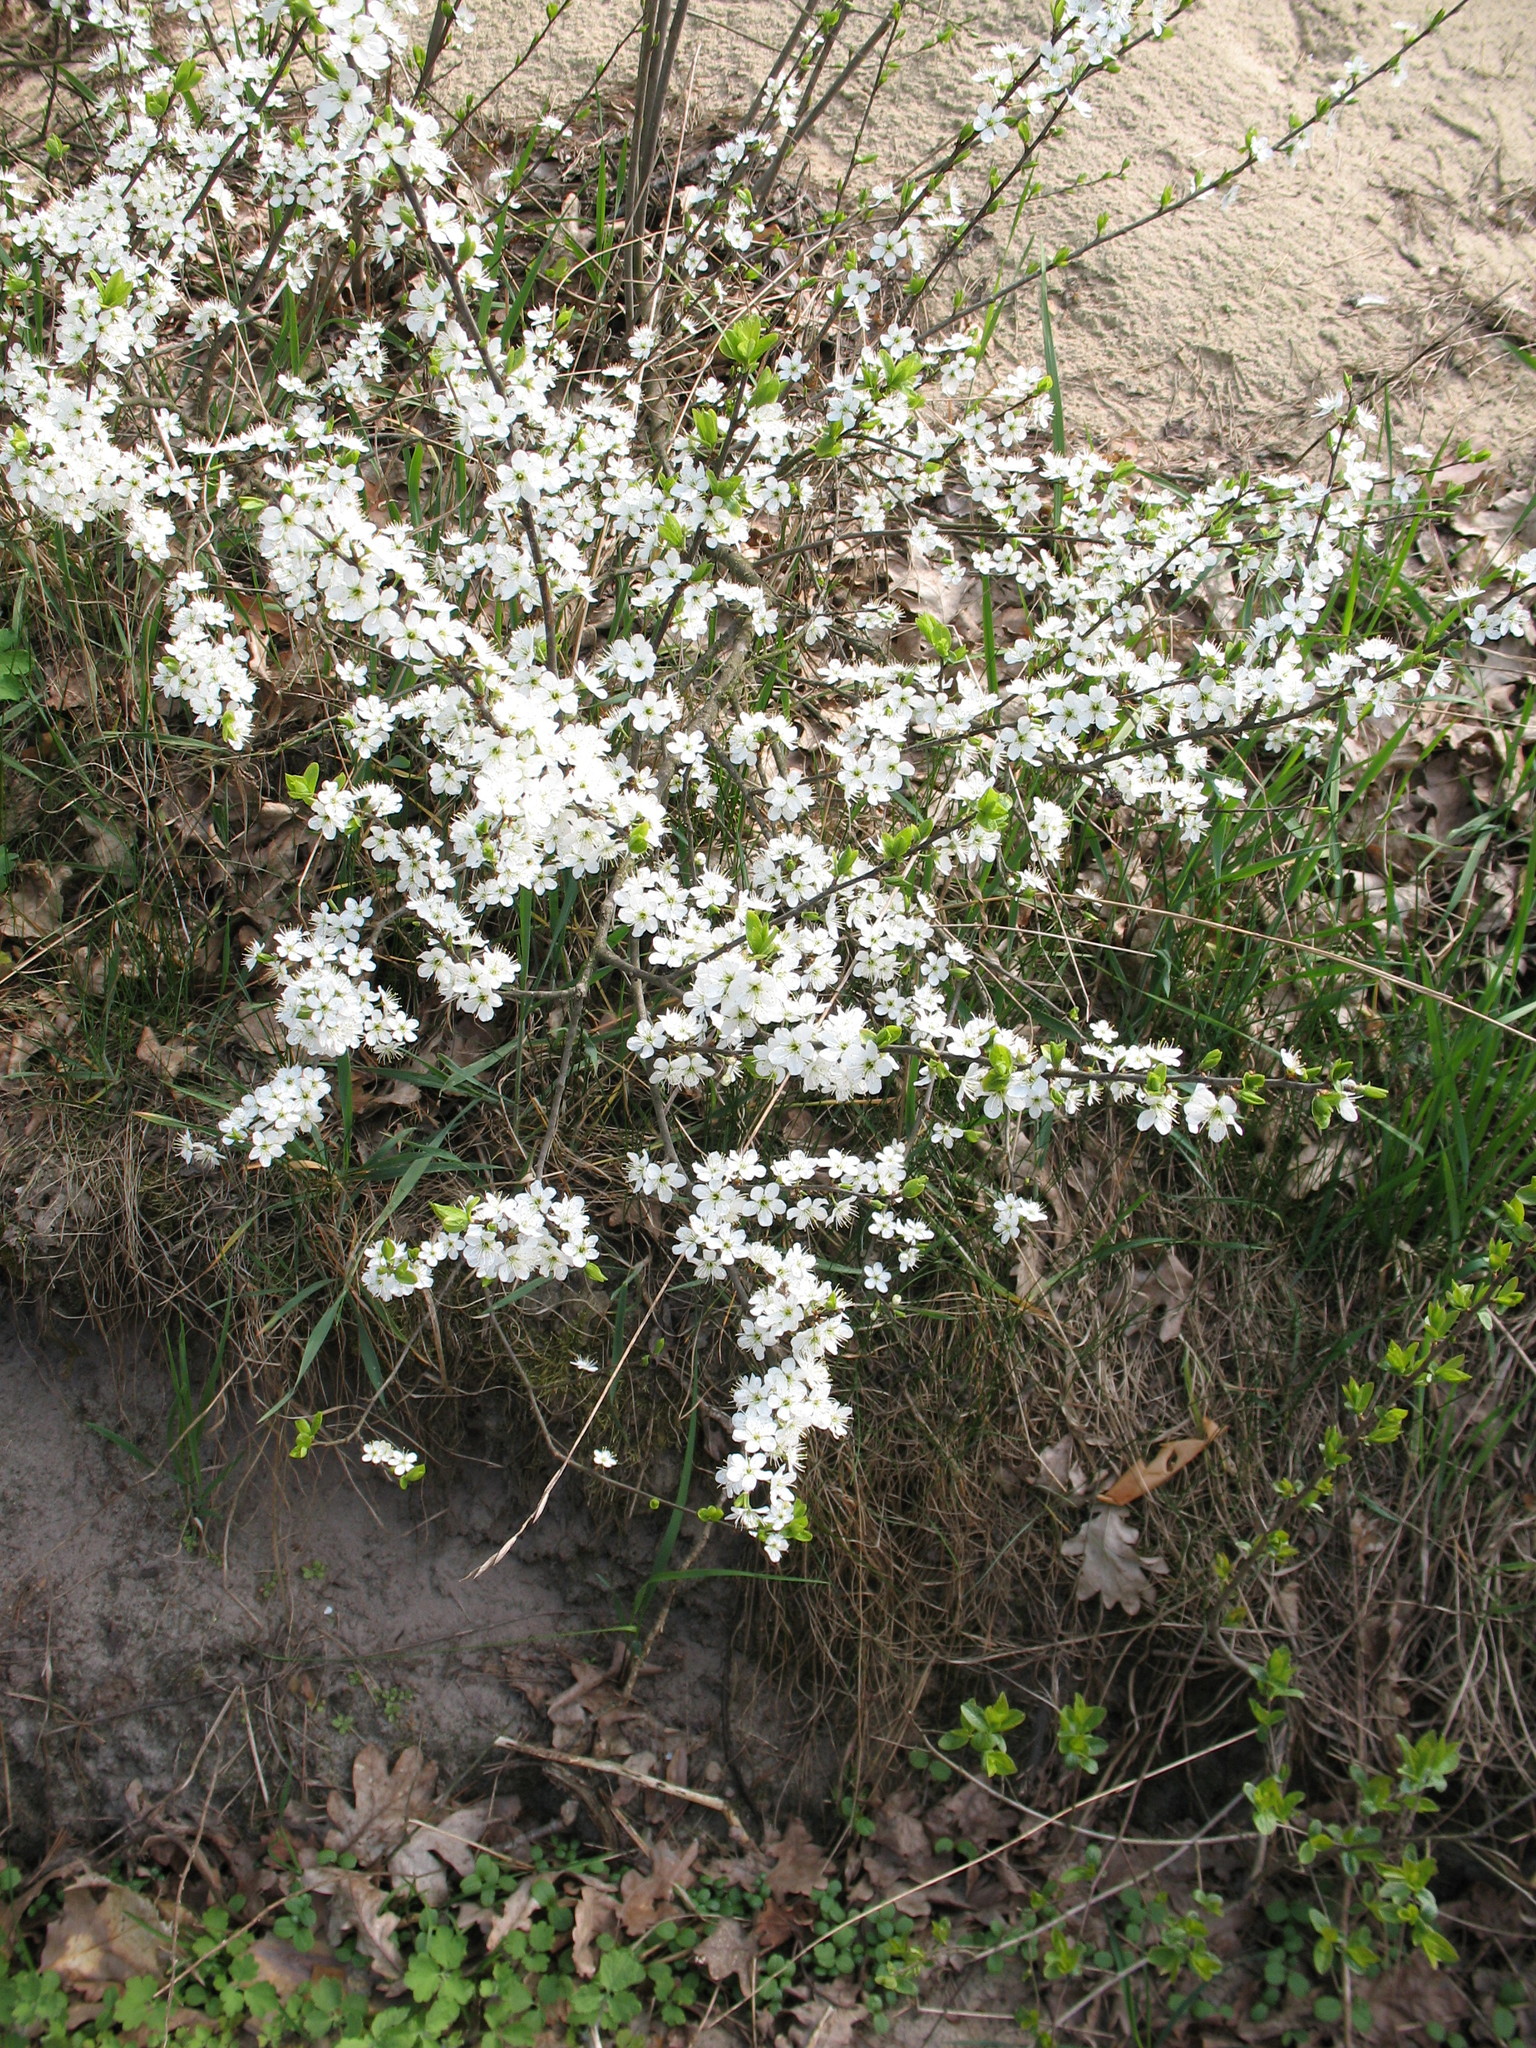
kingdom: Plantae
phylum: Tracheophyta
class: Magnoliopsida
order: Rosales
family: Rosaceae
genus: Prunus
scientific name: Prunus spinosa
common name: Blackthorn
